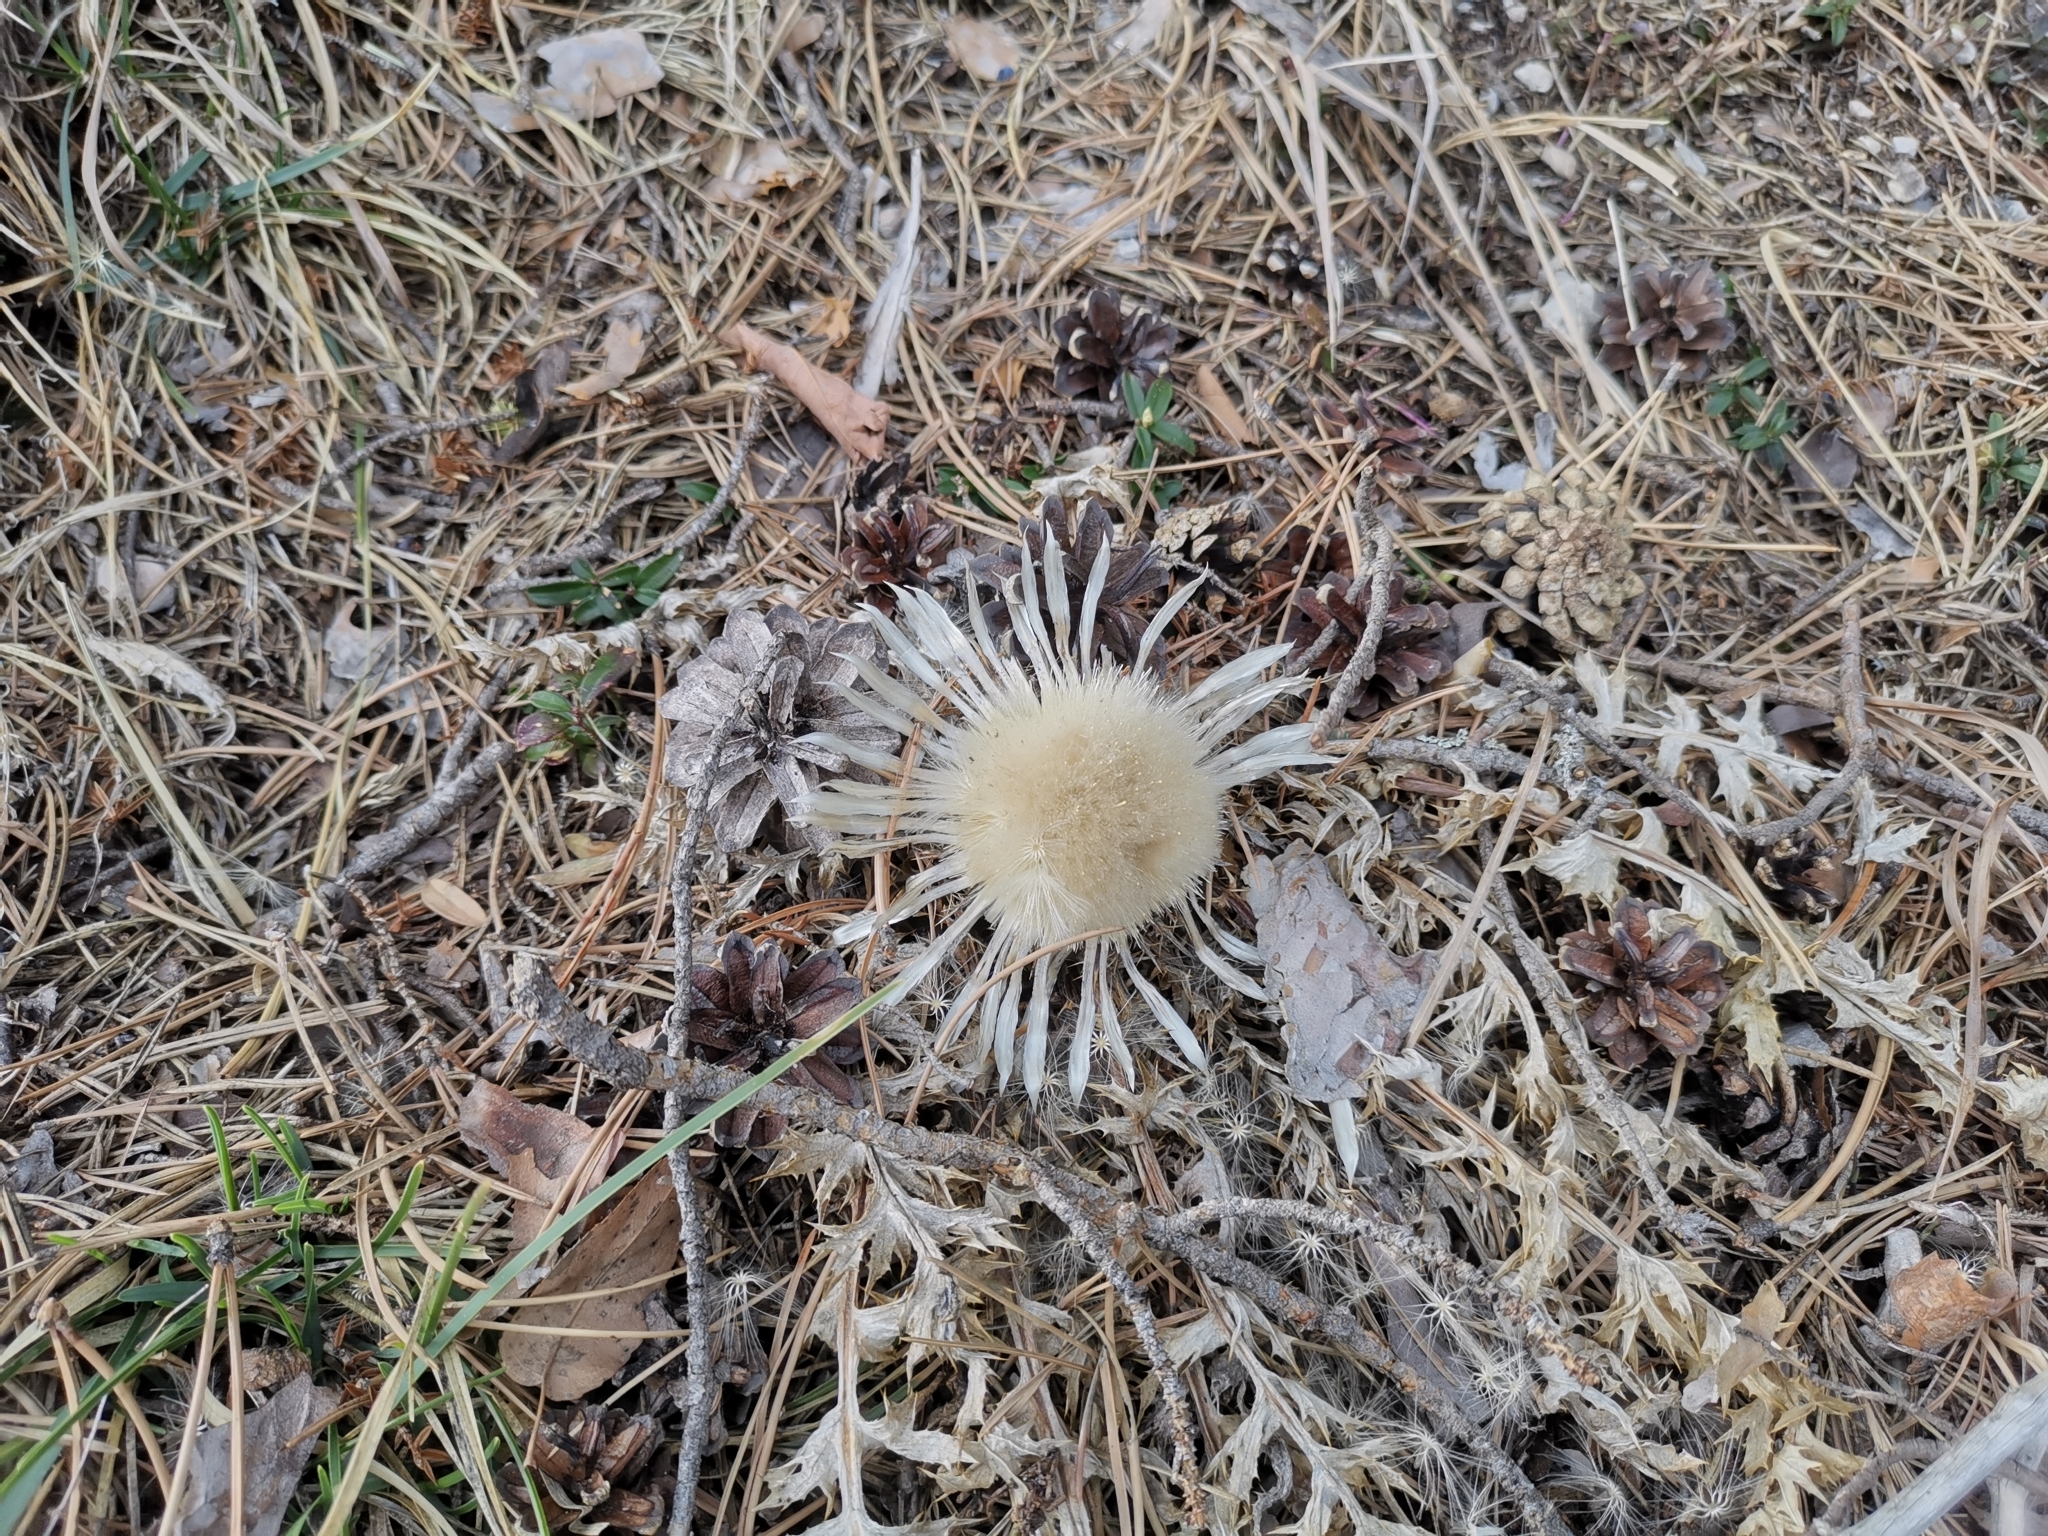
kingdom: Plantae
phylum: Tracheophyta
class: Magnoliopsida
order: Asterales
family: Asteraceae
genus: Carlina
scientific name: Carlina acaulis
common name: Stemless carline thistle
